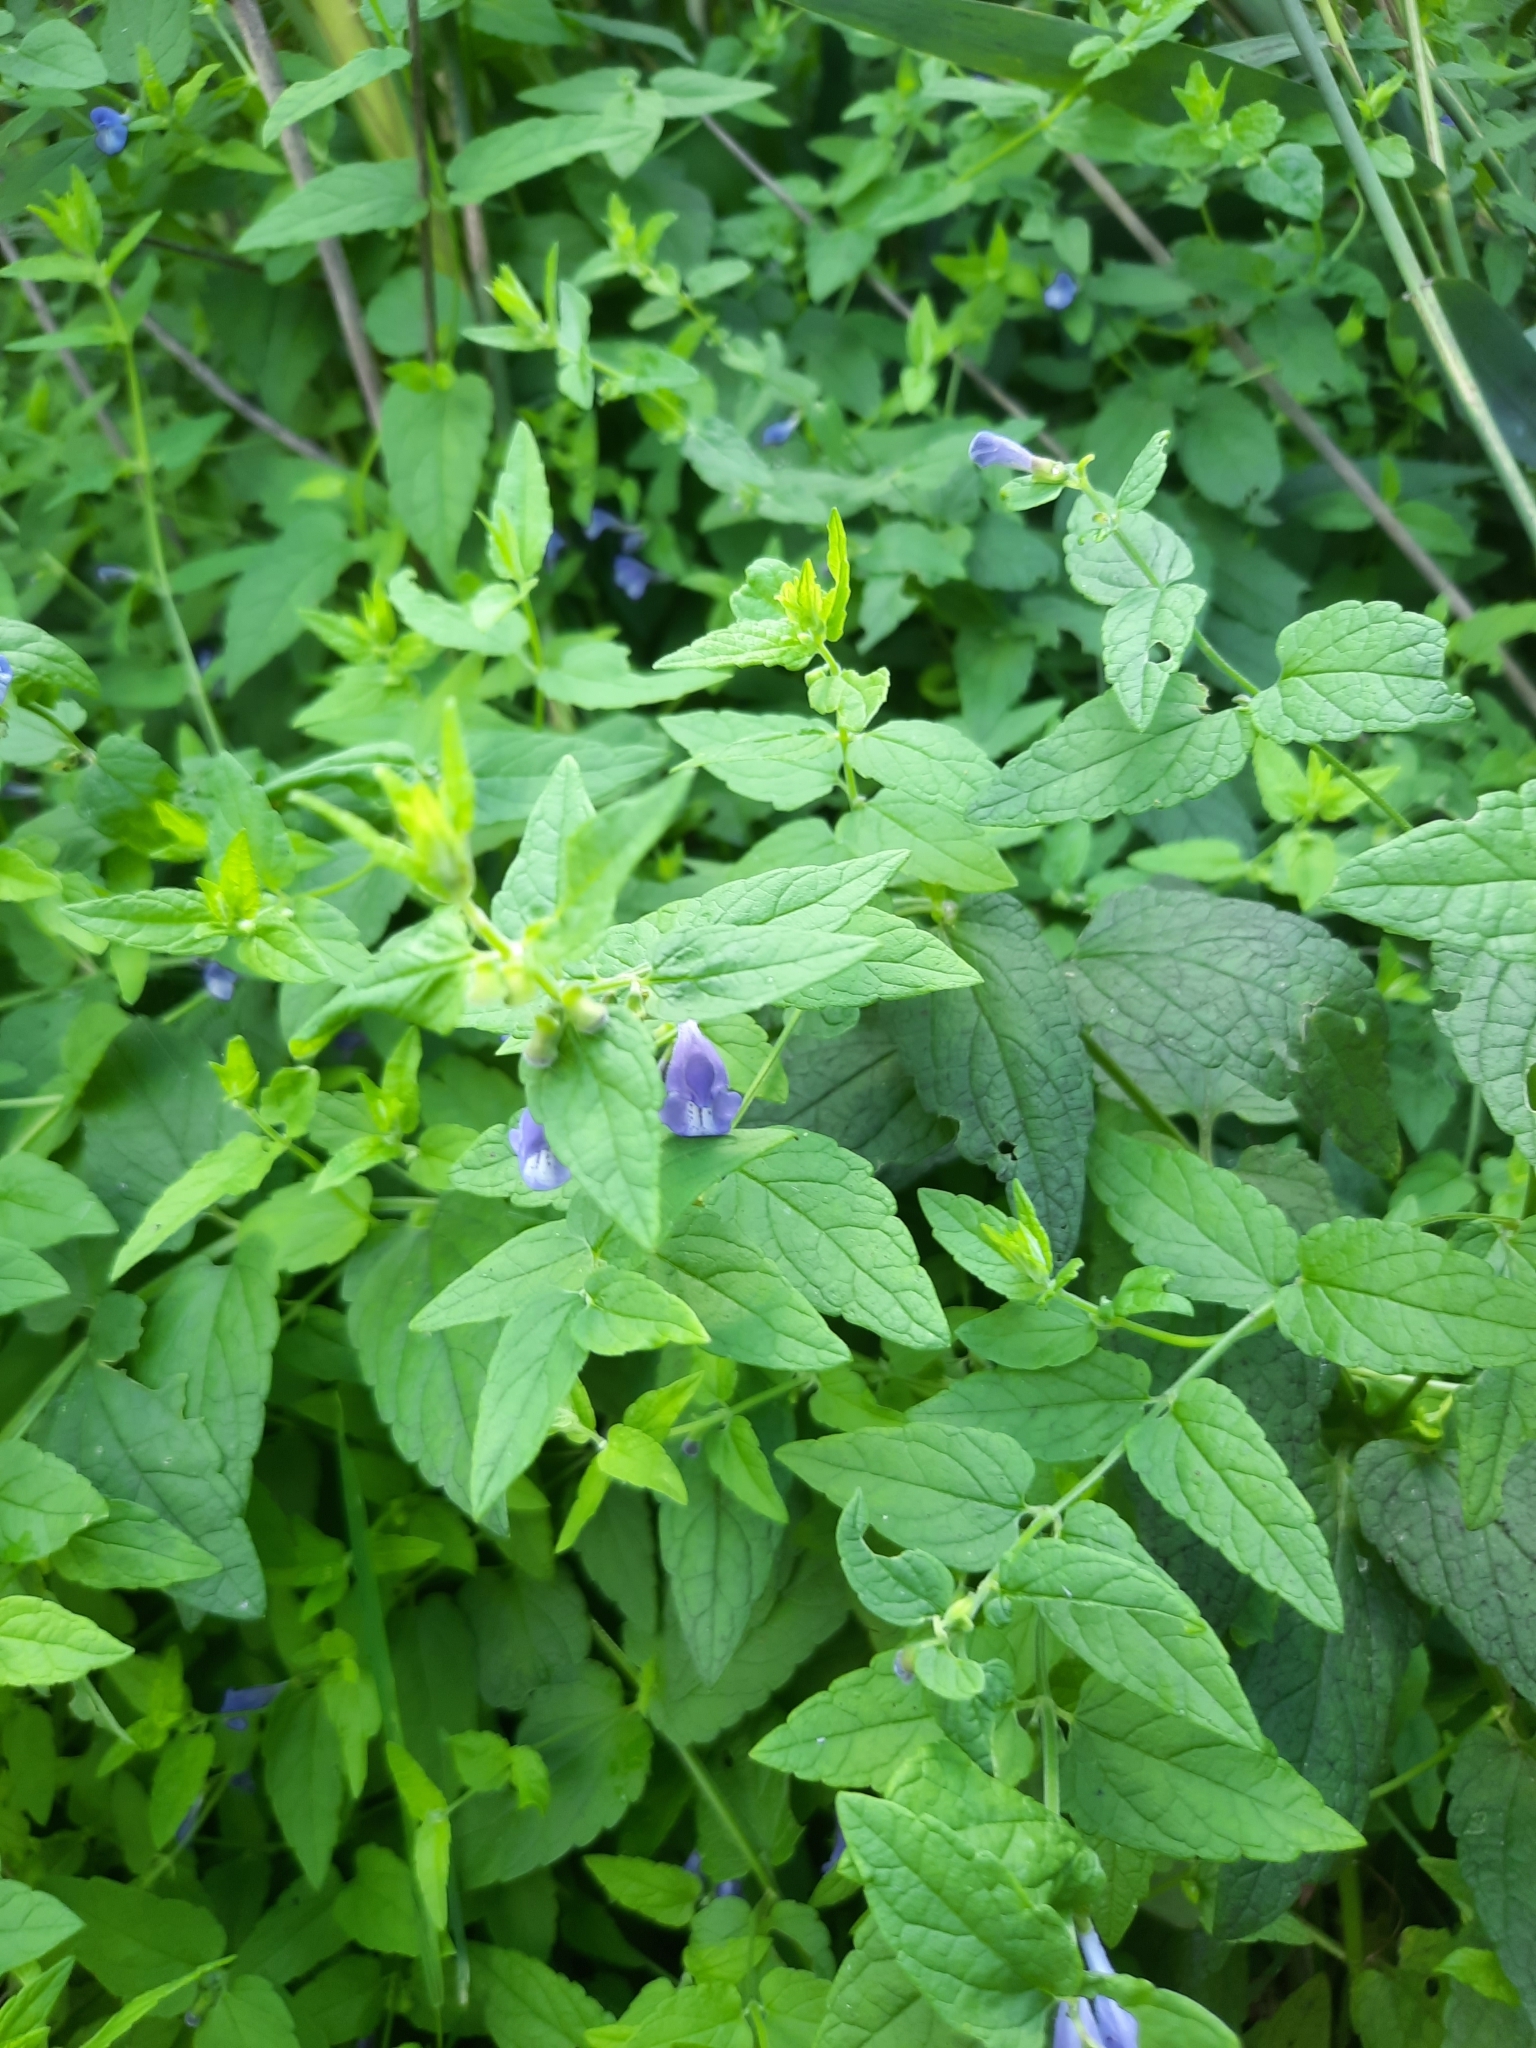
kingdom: Plantae
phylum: Tracheophyta
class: Magnoliopsida
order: Lamiales
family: Lamiaceae
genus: Scutellaria
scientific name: Scutellaria galericulata
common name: Skullcap
